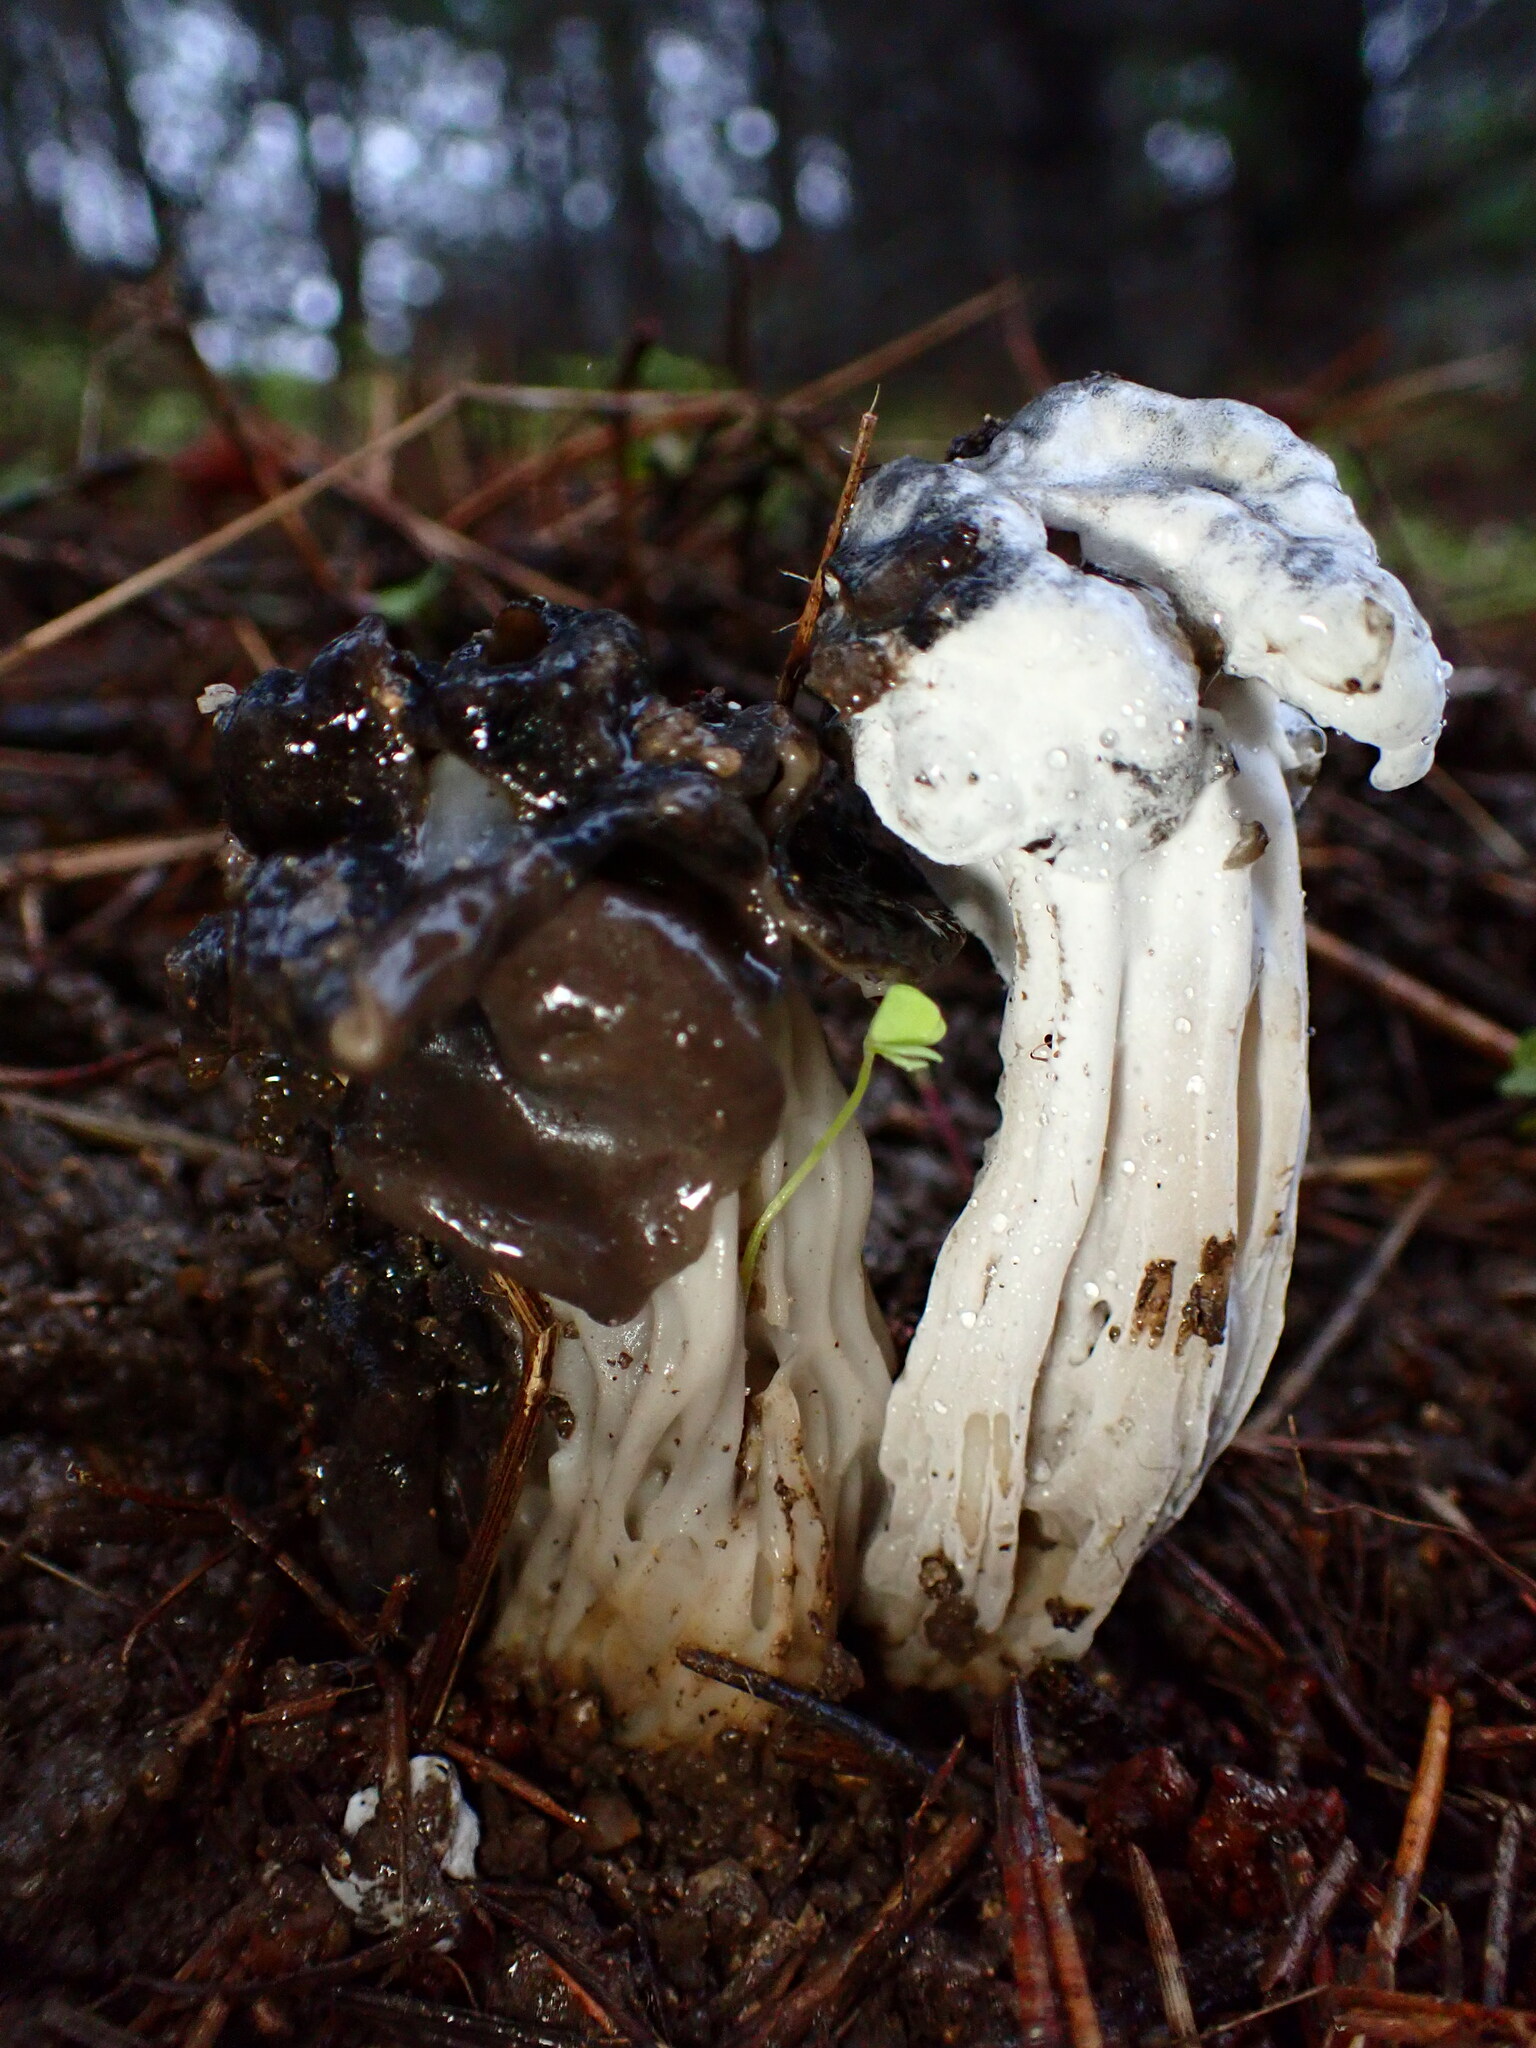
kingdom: Fungi
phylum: Ascomycota
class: Sordariomycetes
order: Hypocreales
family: Hypocreaceae
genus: Hypomyces
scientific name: Hypomyces cervinus
